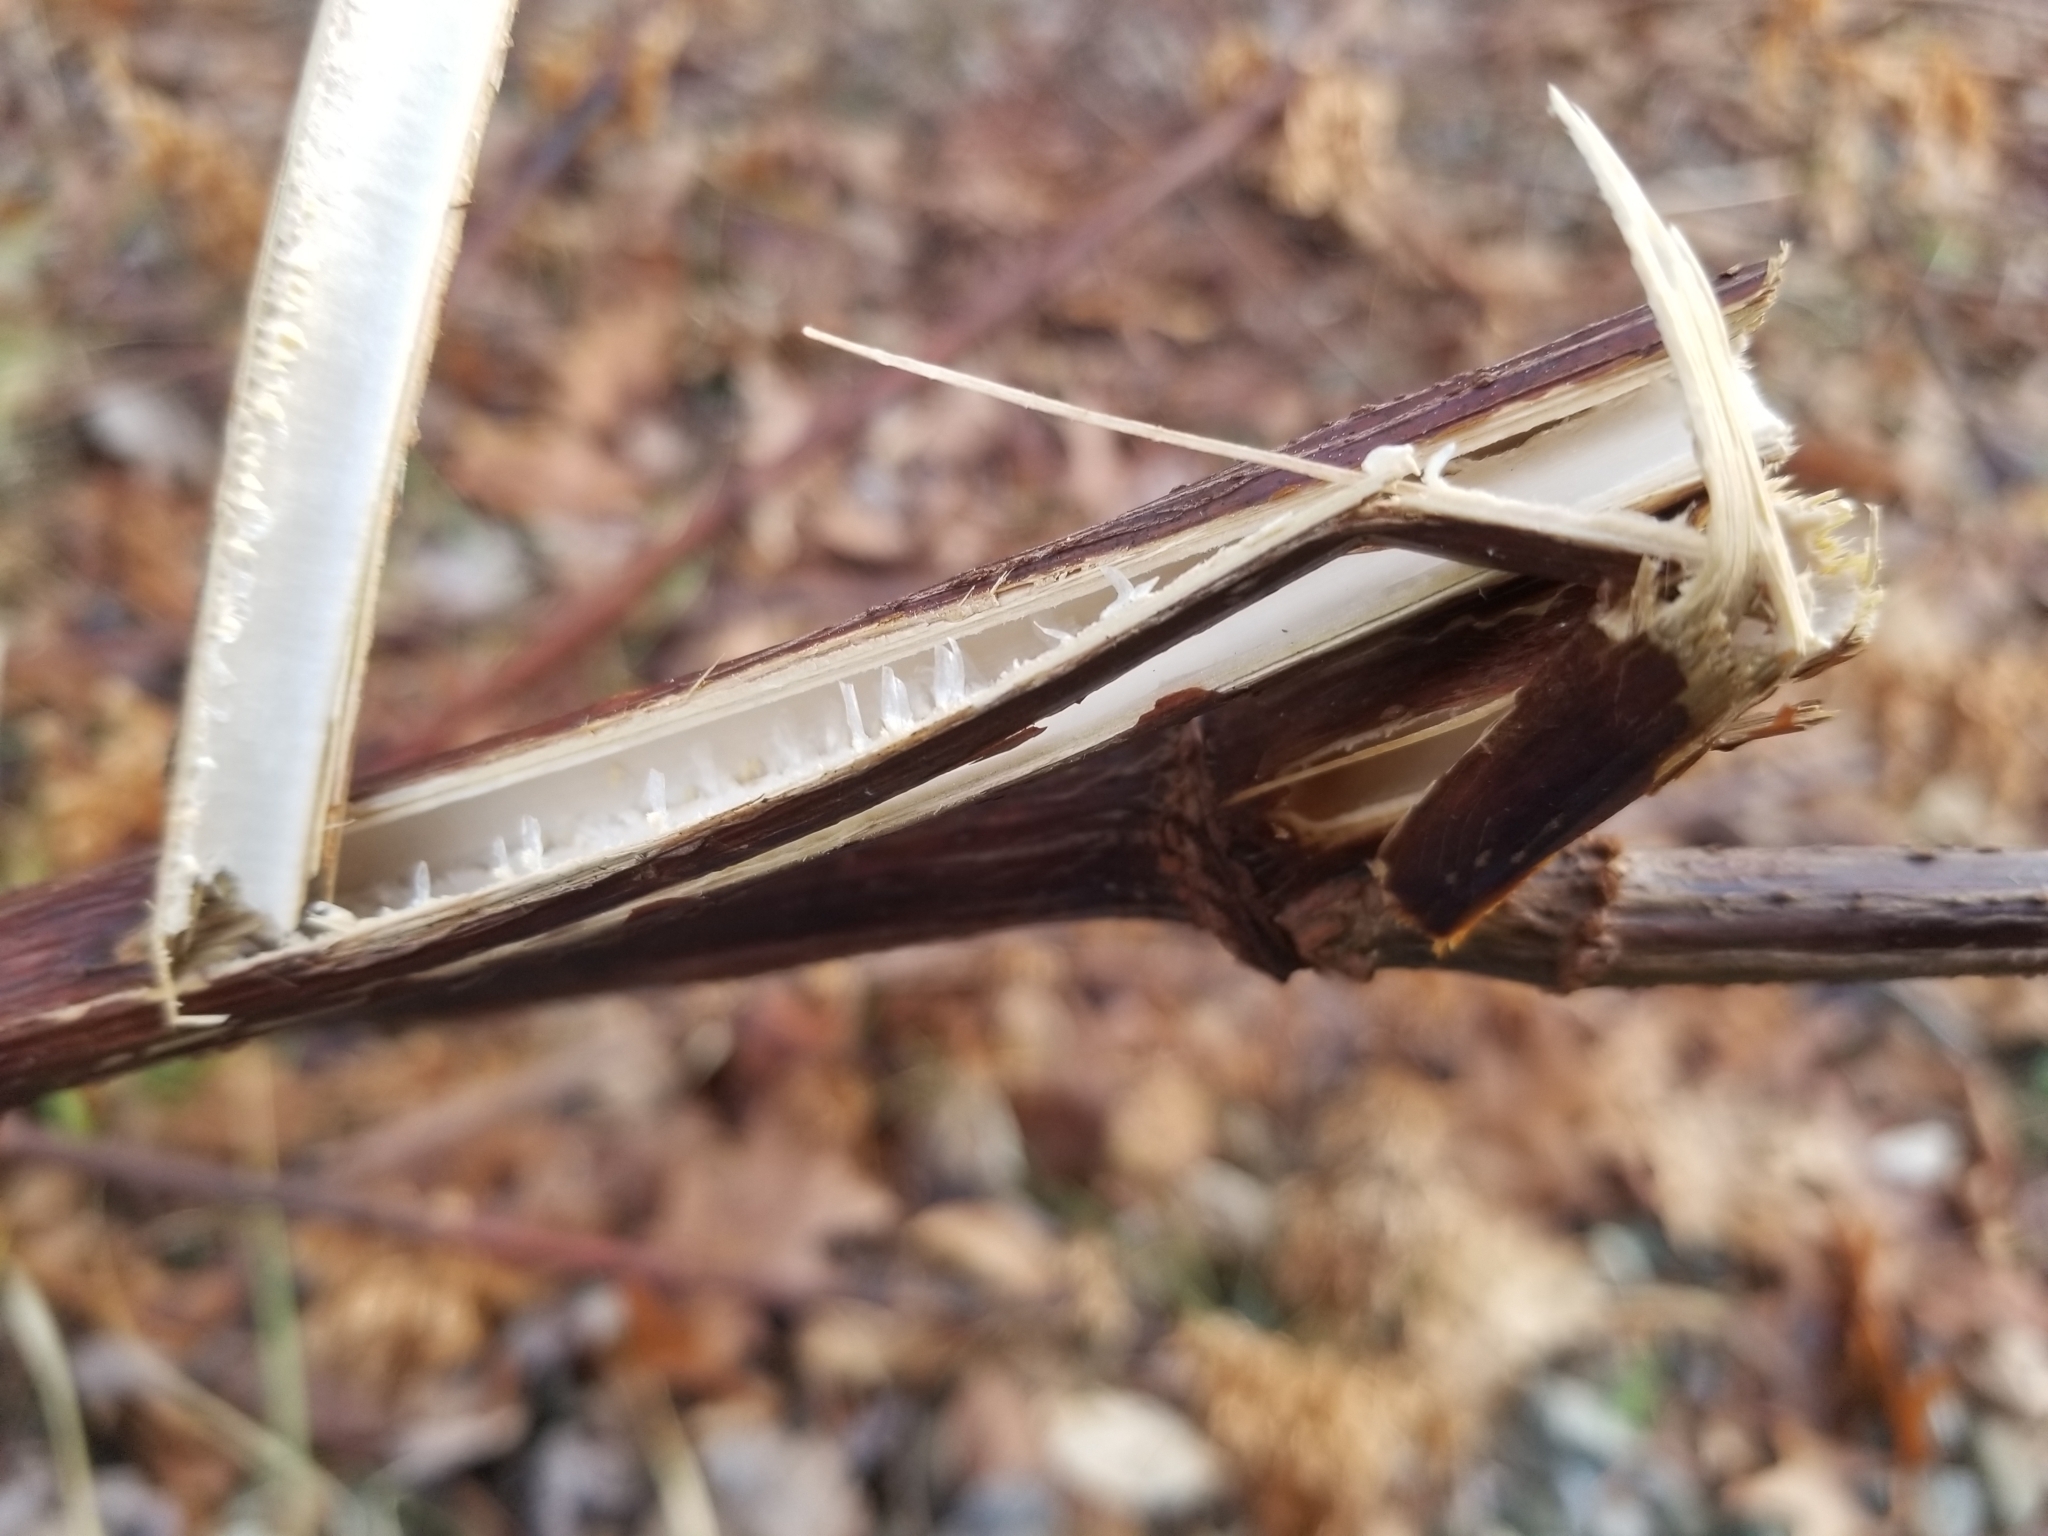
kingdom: Plantae
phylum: Tracheophyta
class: Magnoliopsida
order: Caryophyllales
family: Polygonaceae
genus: Reynoutria
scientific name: Reynoutria japonica
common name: Japanese knotweed
